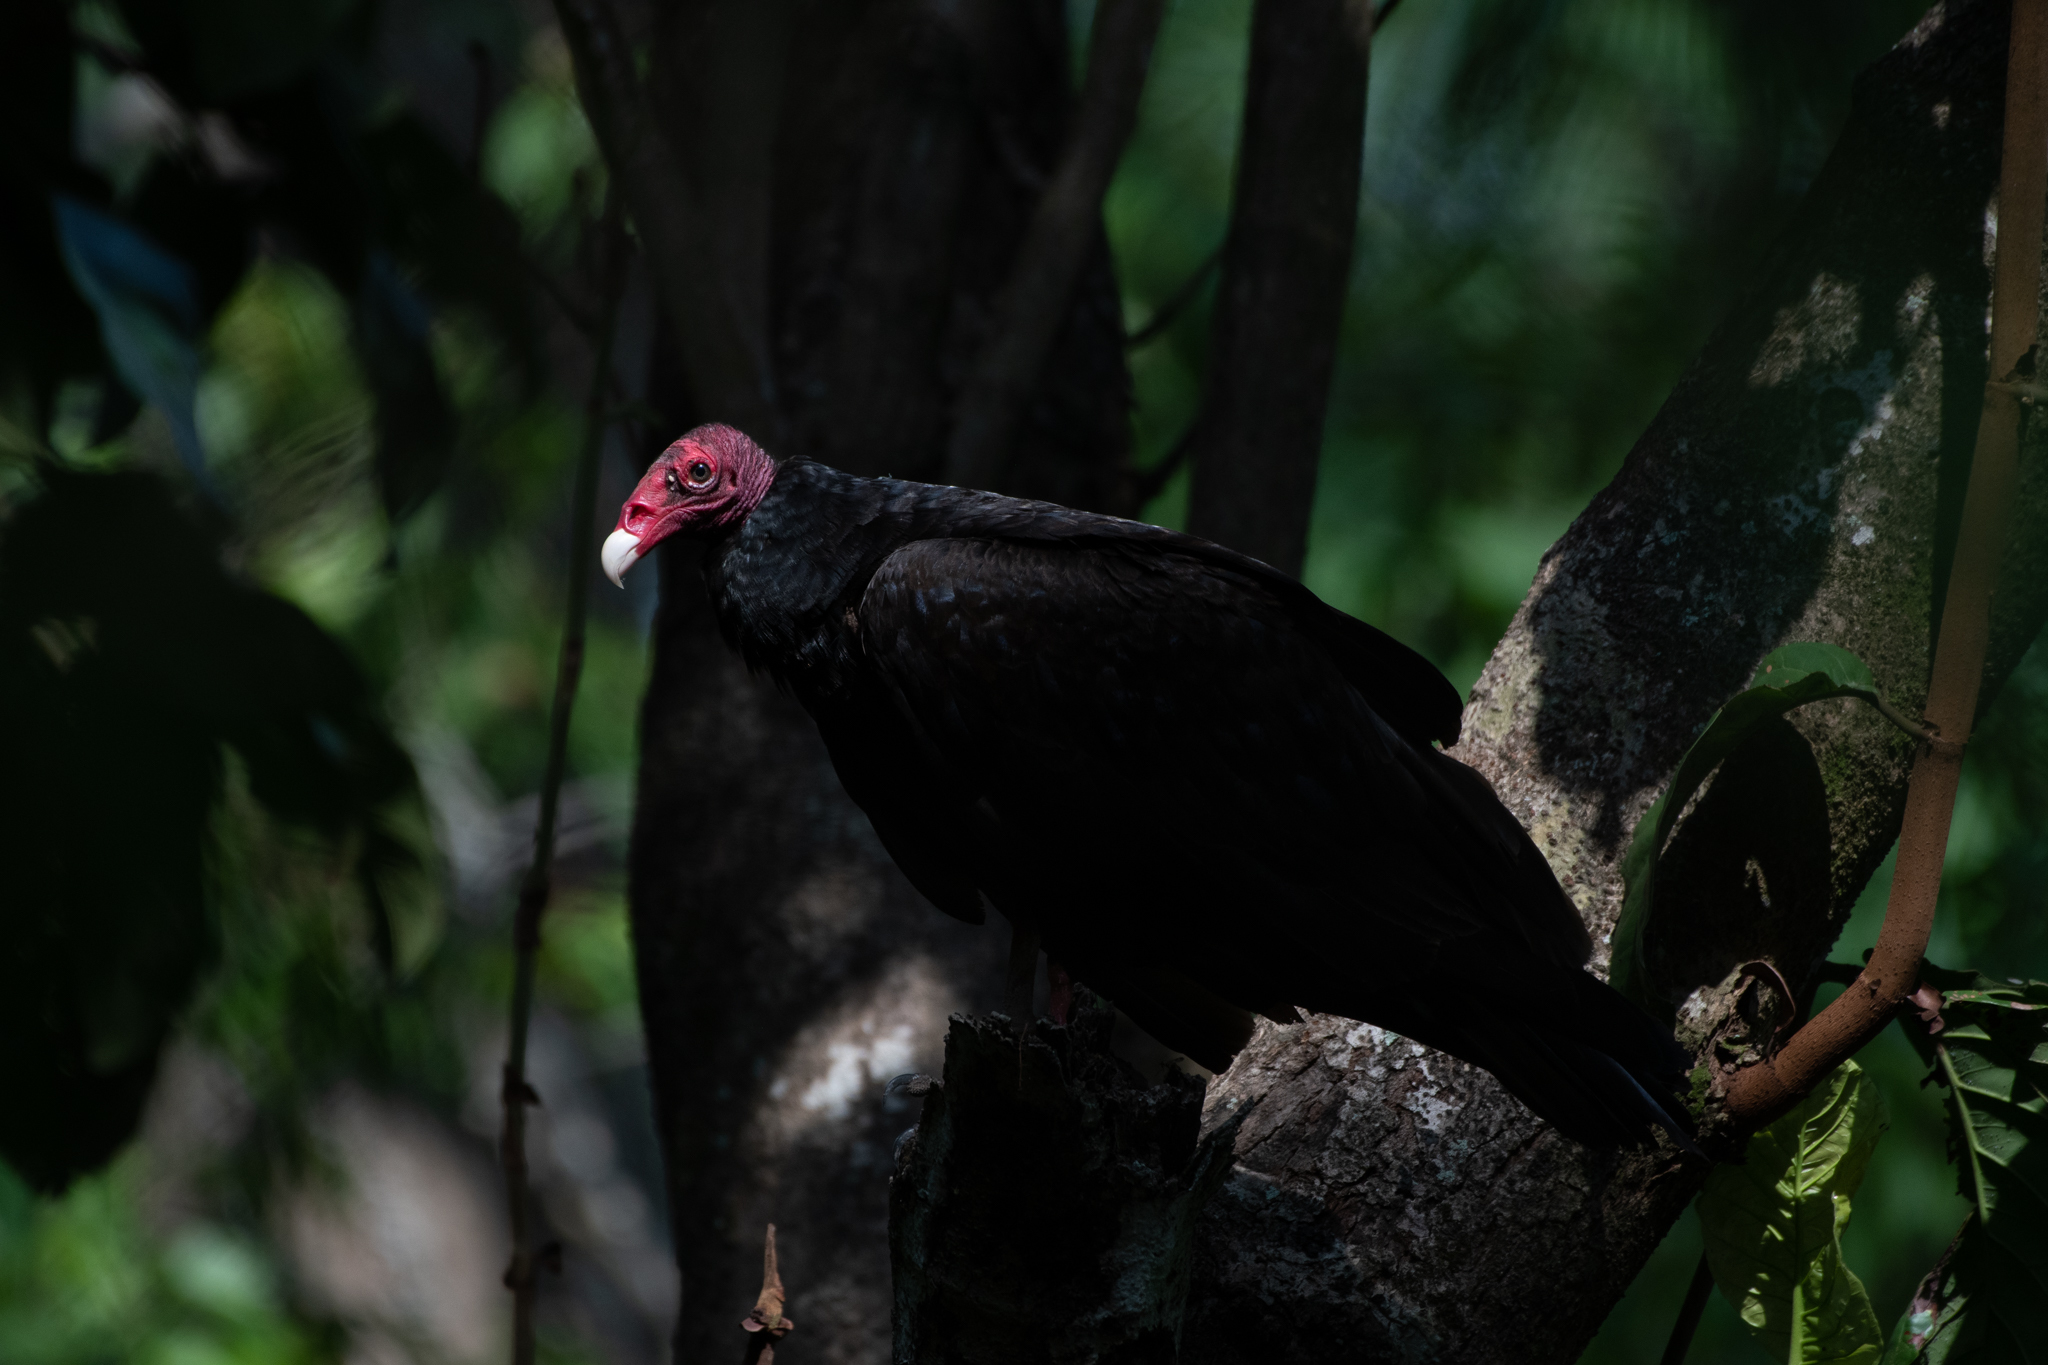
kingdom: Animalia
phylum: Chordata
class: Aves
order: Accipitriformes
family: Cathartidae
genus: Cathartes
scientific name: Cathartes aura
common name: Turkey vulture
